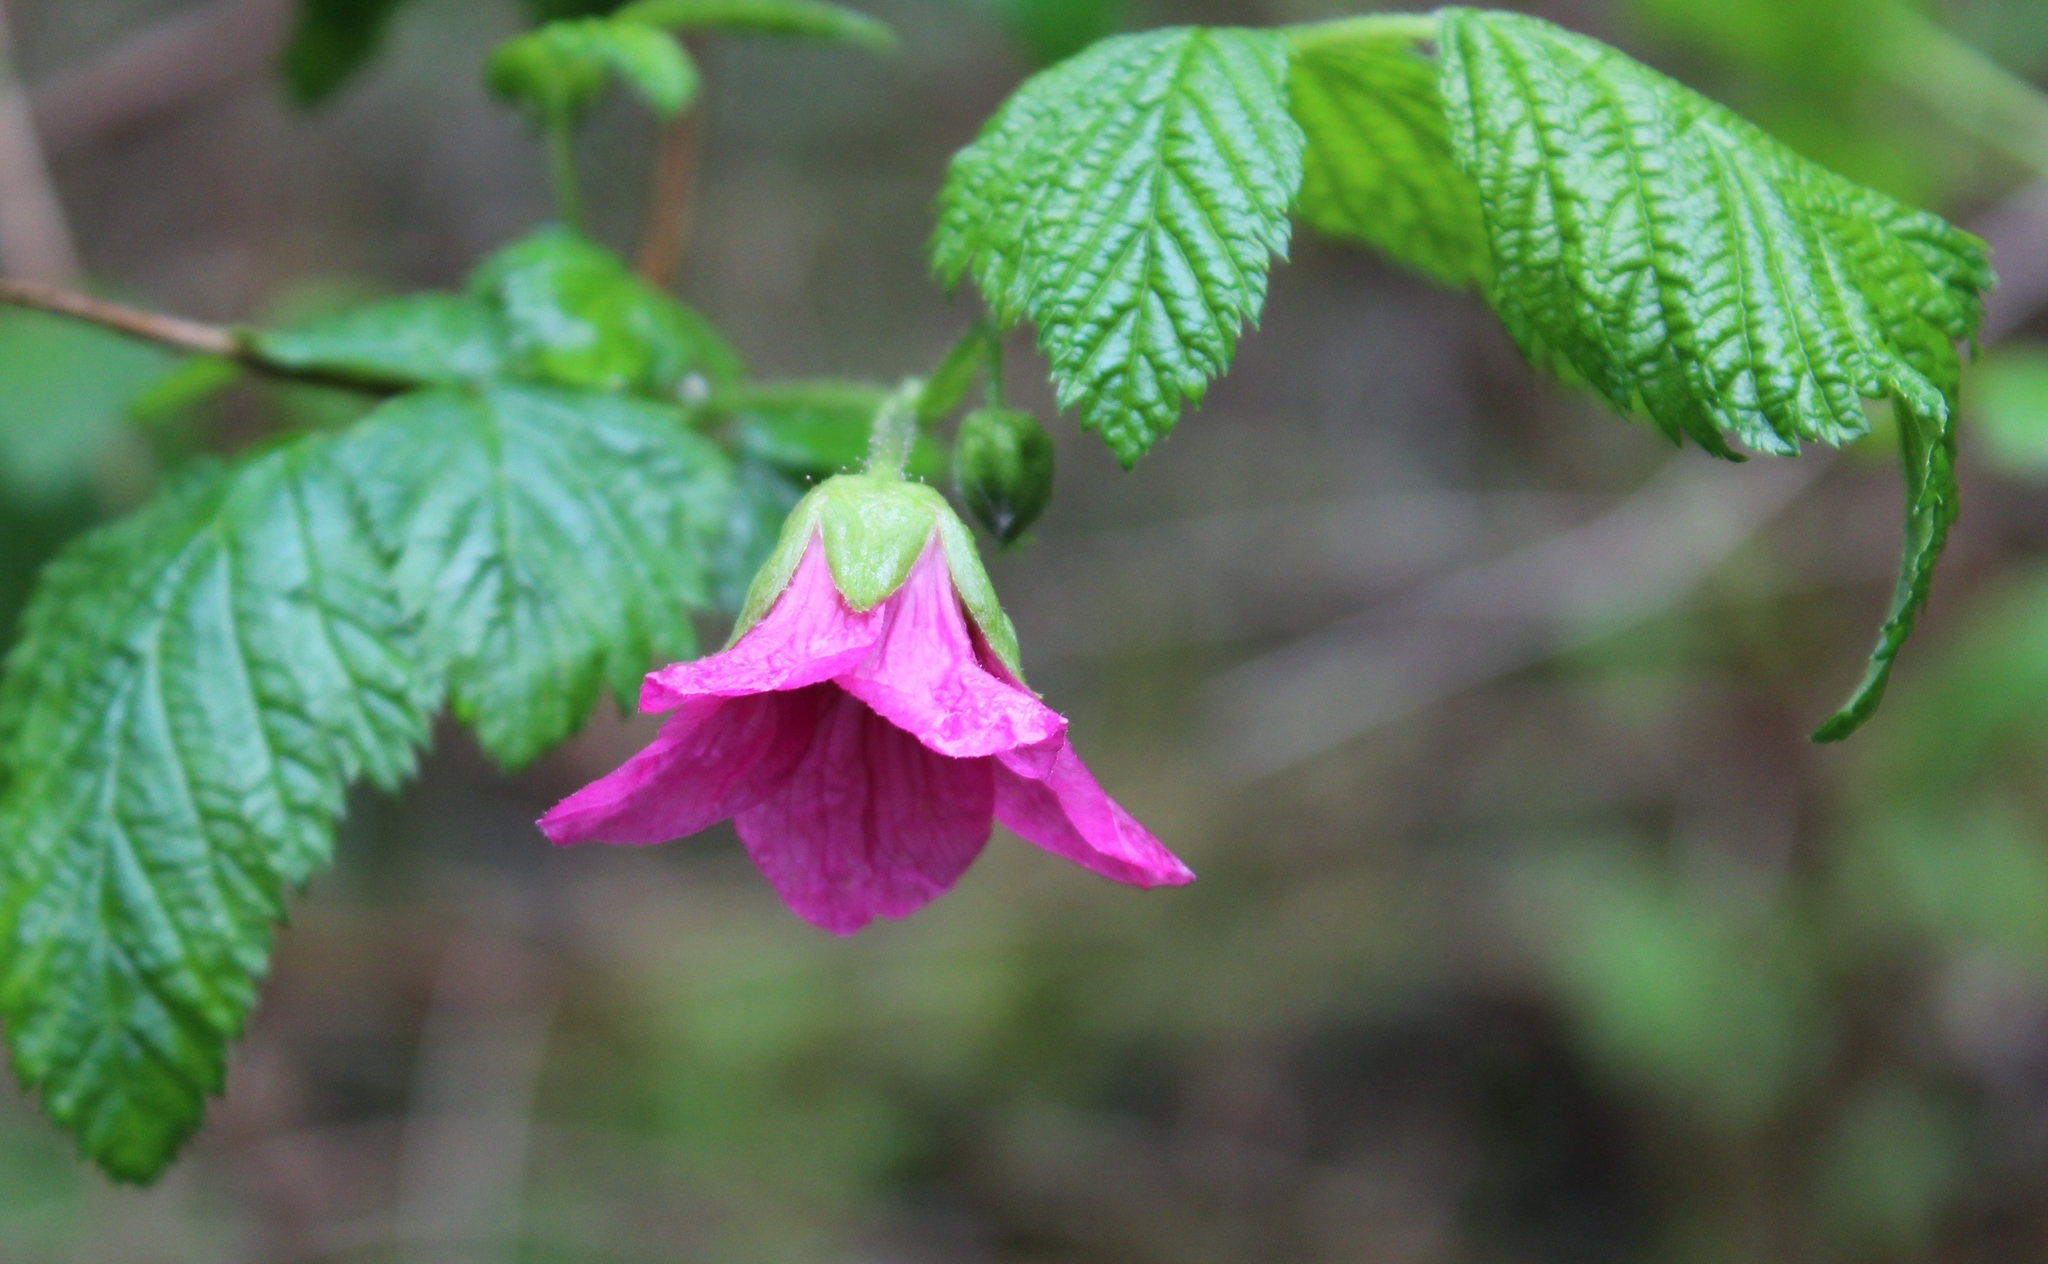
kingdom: Plantae
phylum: Tracheophyta
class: Magnoliopsida
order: Rosales
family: Rosaceae
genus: Rubus
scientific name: Rubus spectabilis
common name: Salmonberry
